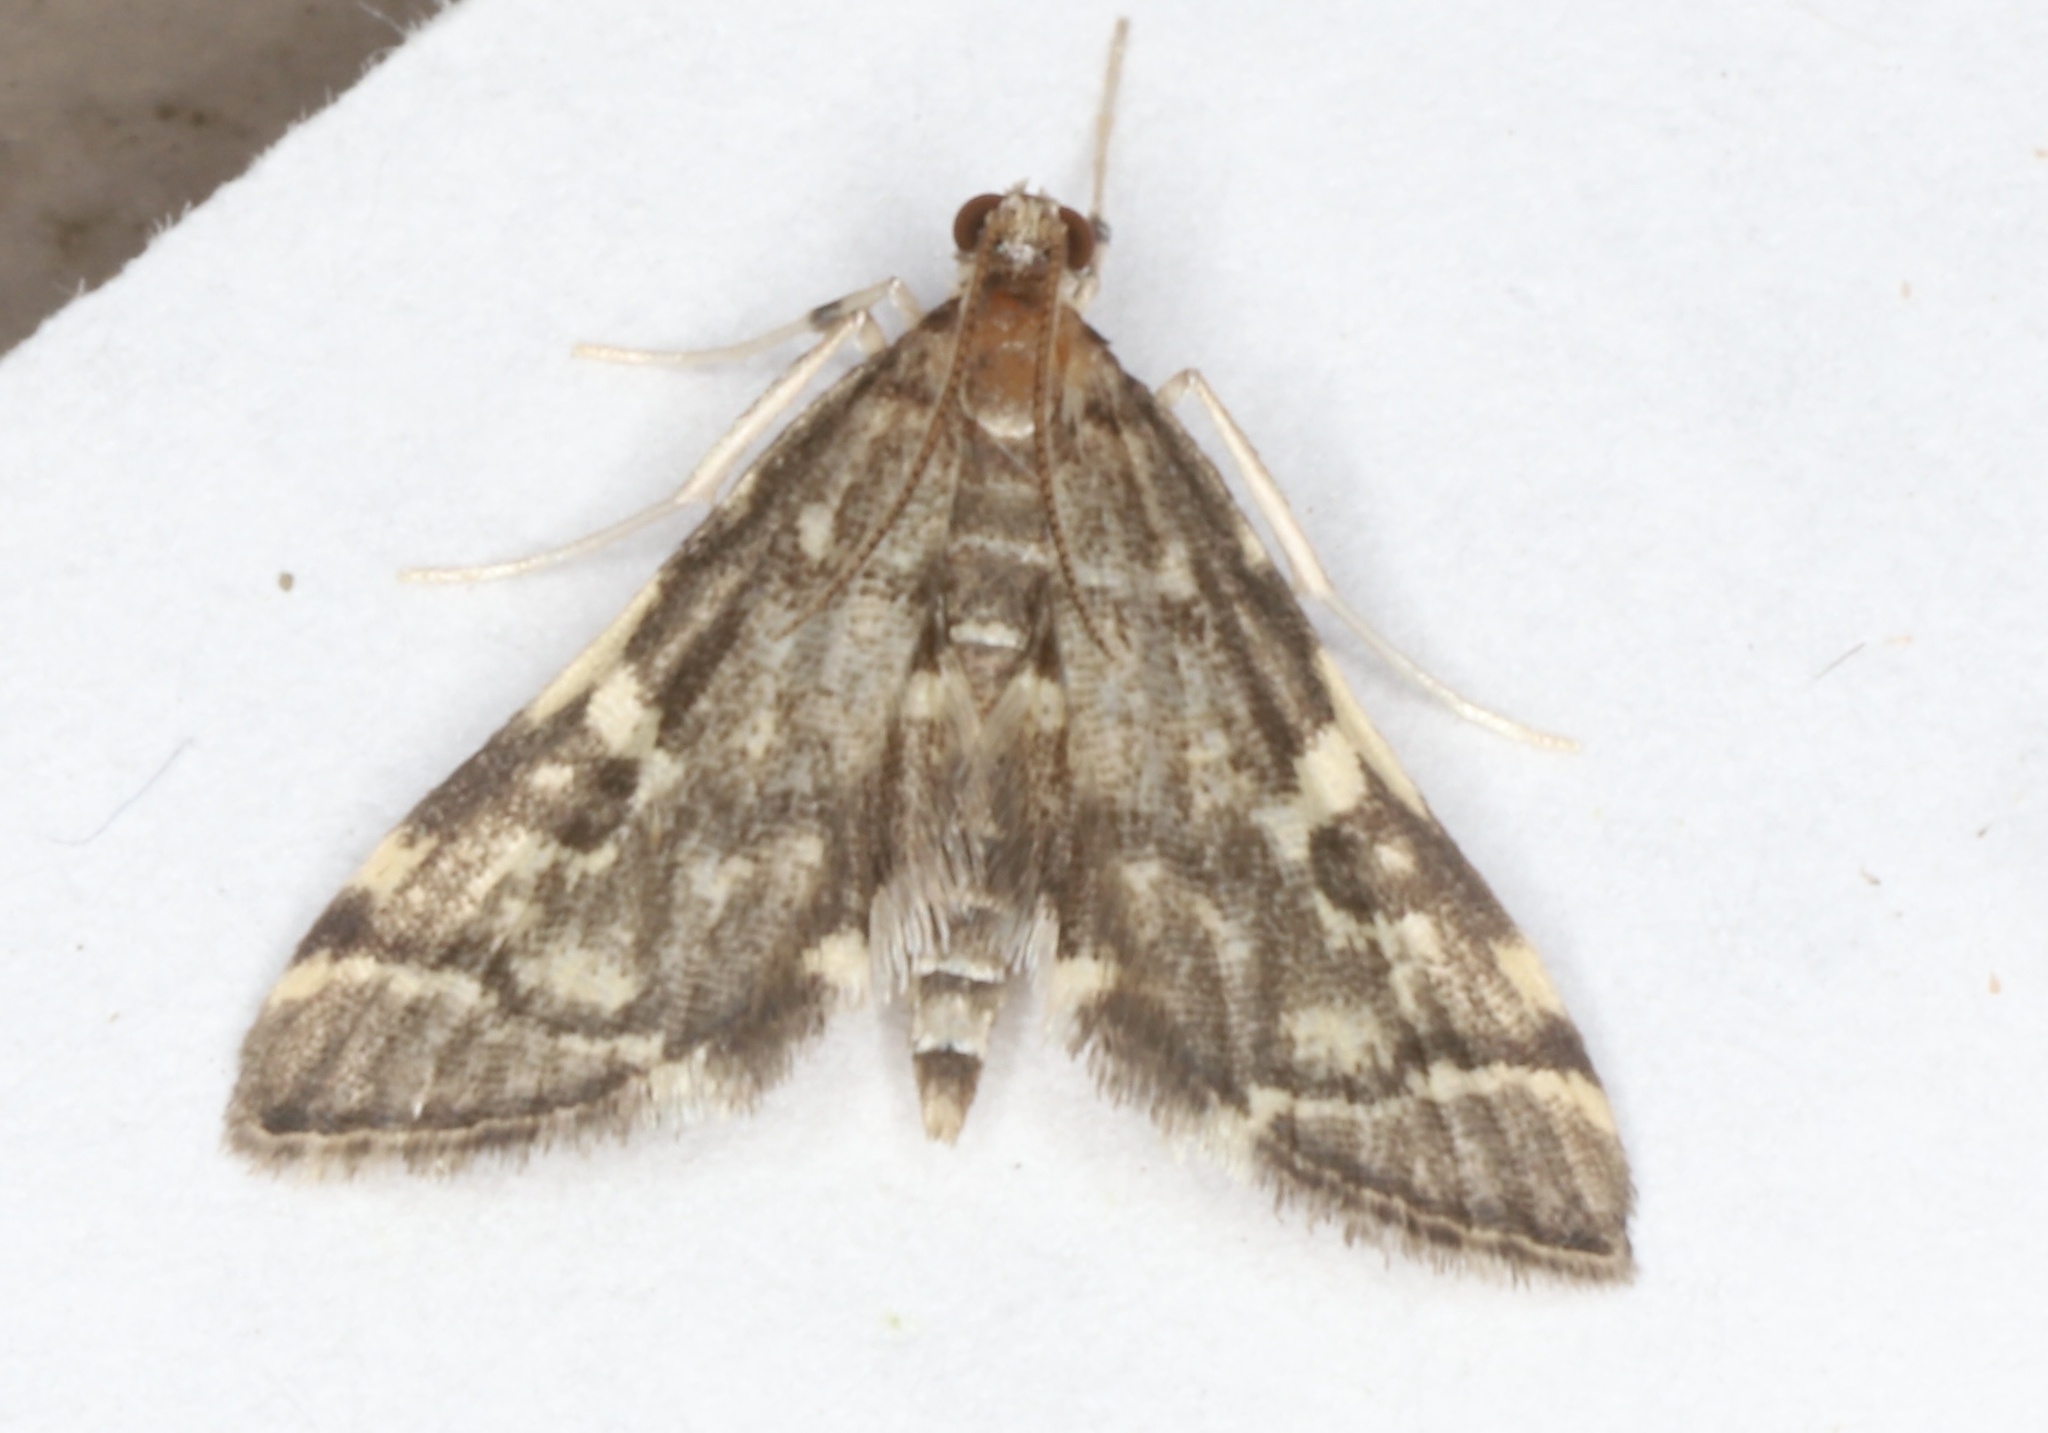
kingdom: Animalia
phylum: Arthropoda
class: Insecta
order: Lepidoptera
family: Crambidae
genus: Anageshna
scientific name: Anageshna primordialis
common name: Yellow-spotted webworm moth
